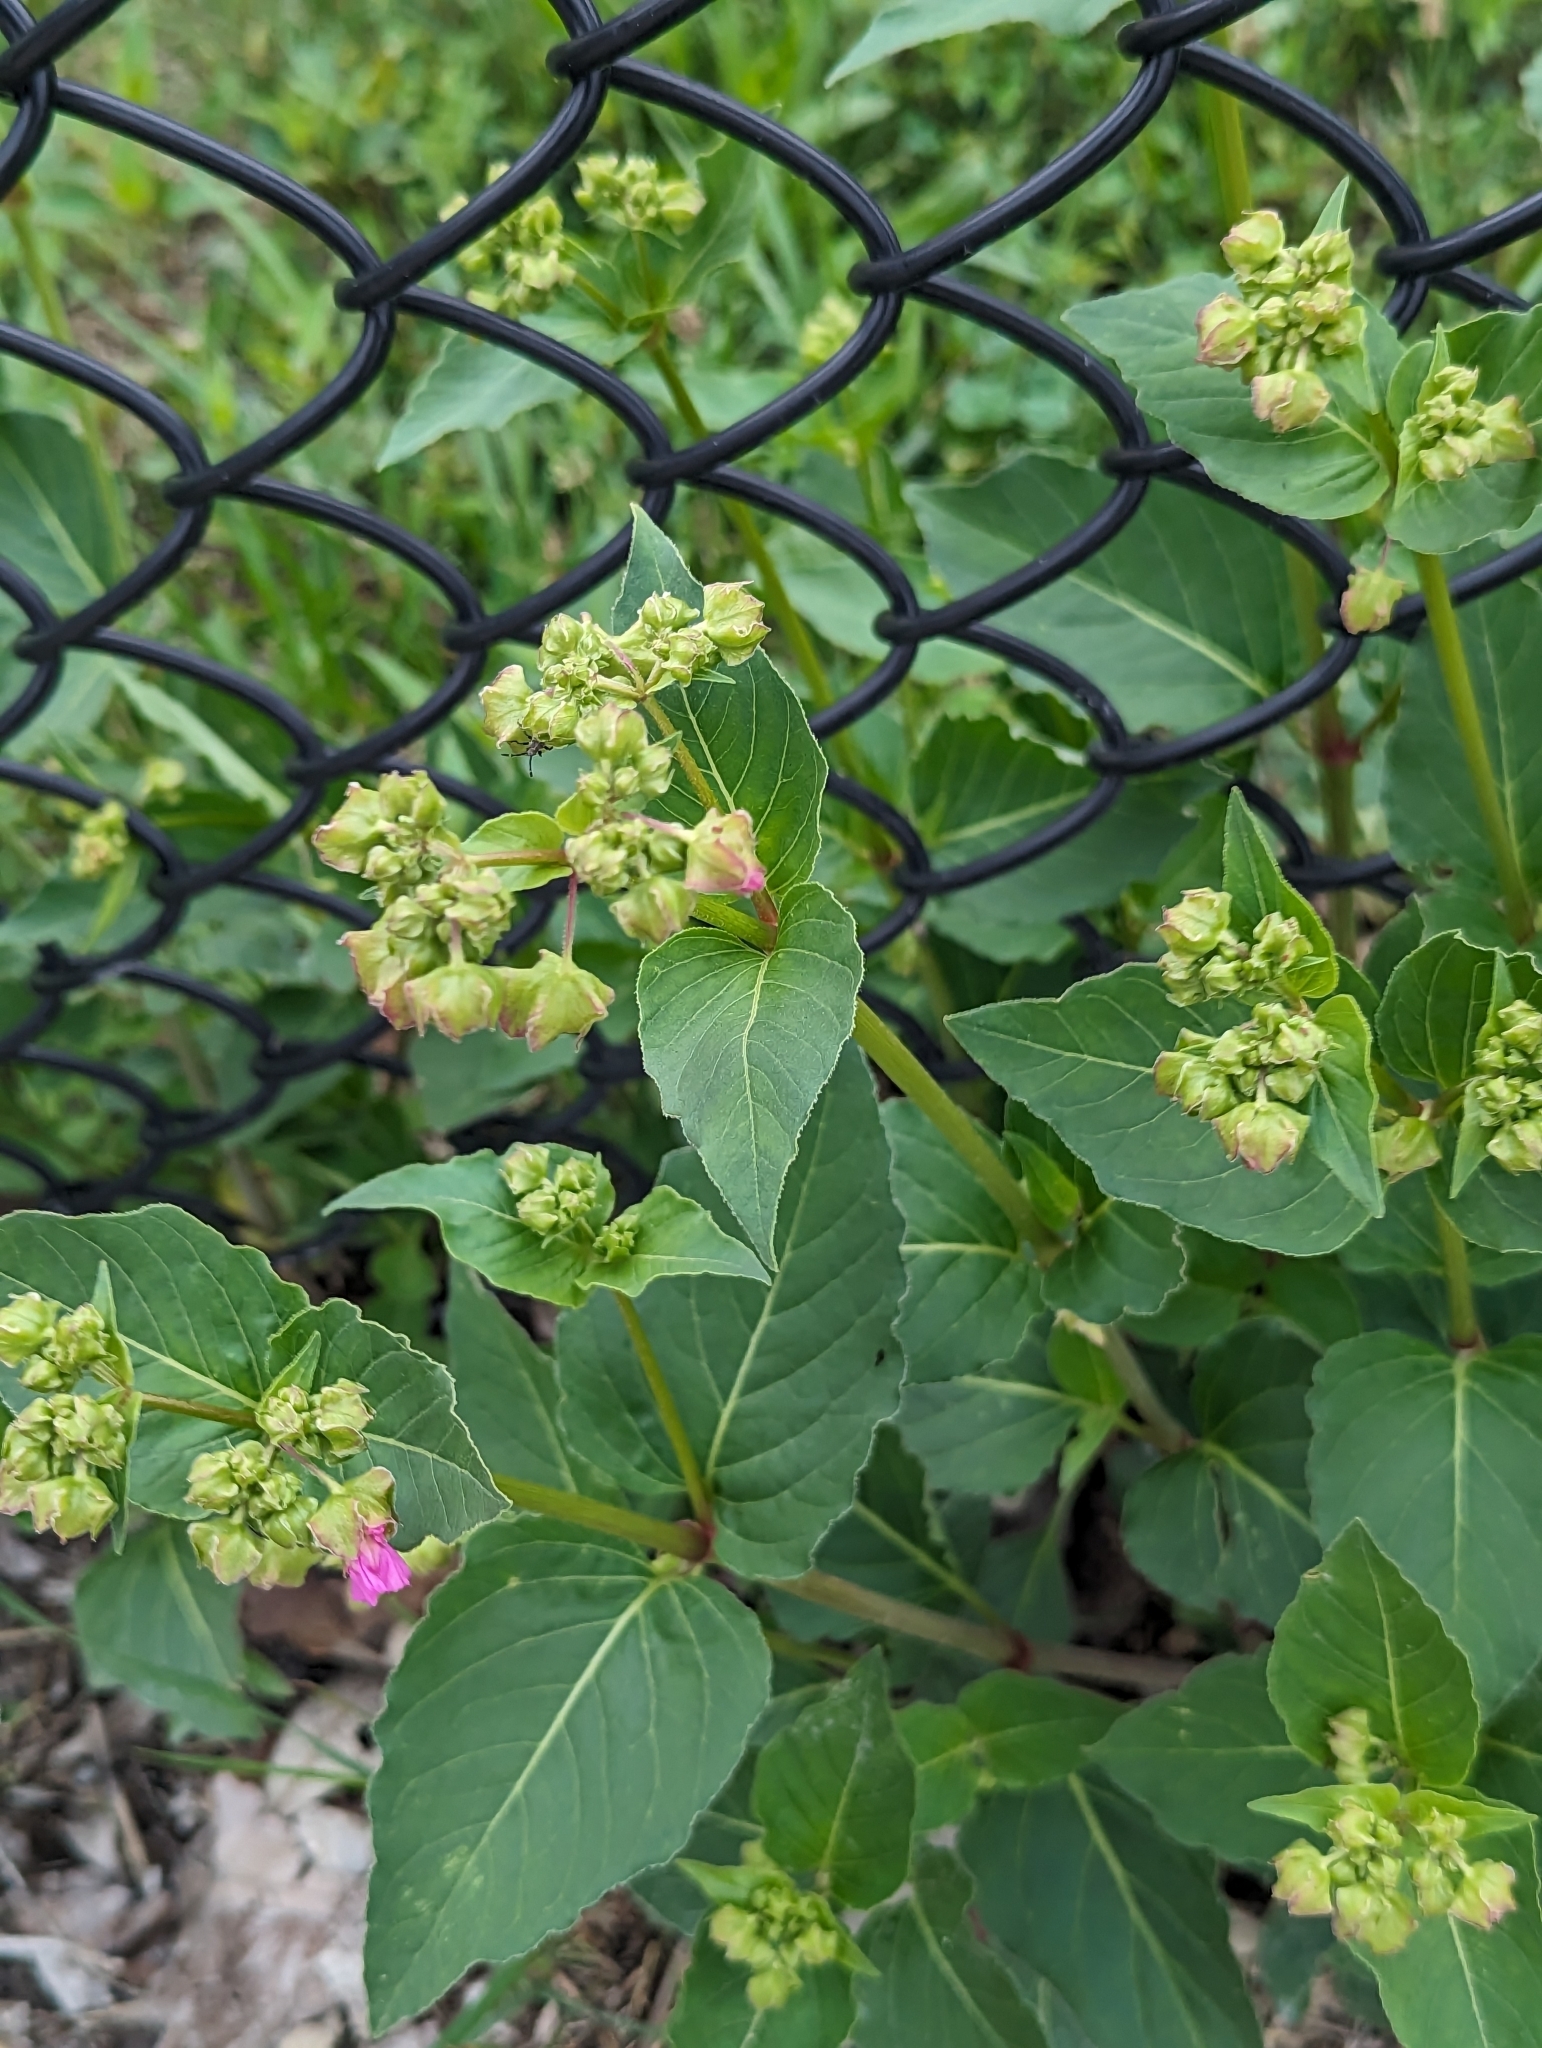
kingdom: Plantae
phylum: Tracheophyta
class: Magnoliopsida
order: Caryophyllales
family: Nyctaginaceae
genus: Mirabilis
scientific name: Mirabilis nyctaginea
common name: Umbrella wort
